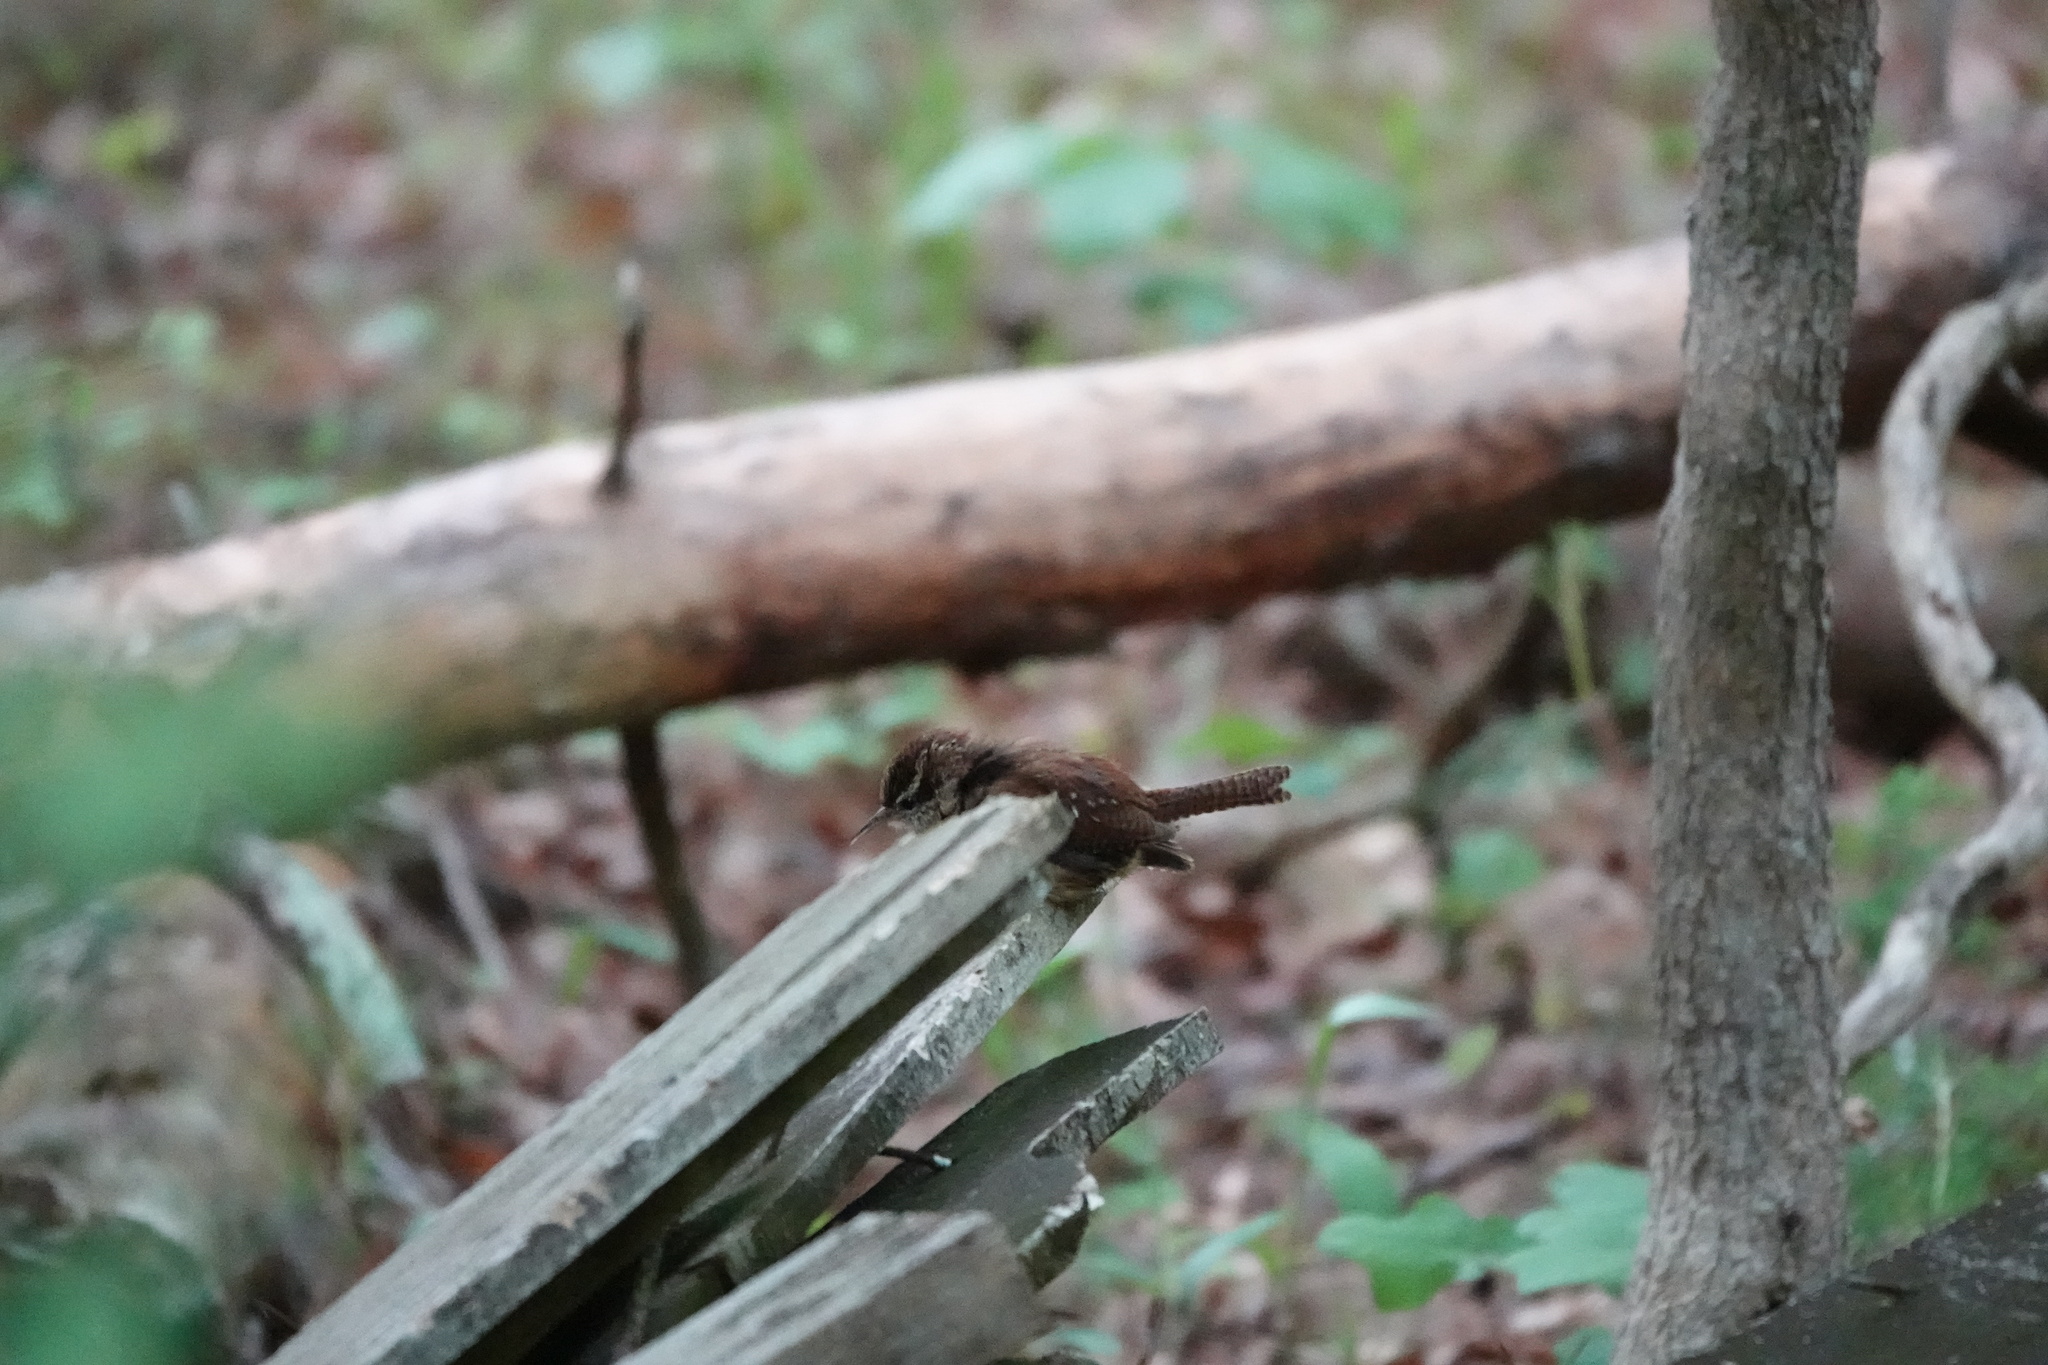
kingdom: Animalia
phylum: Chordata
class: Aves
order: Passeriformes
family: Troglodytidae
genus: Thryothorus
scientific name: Thryothorus ludovicianus
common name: Carolina wren
